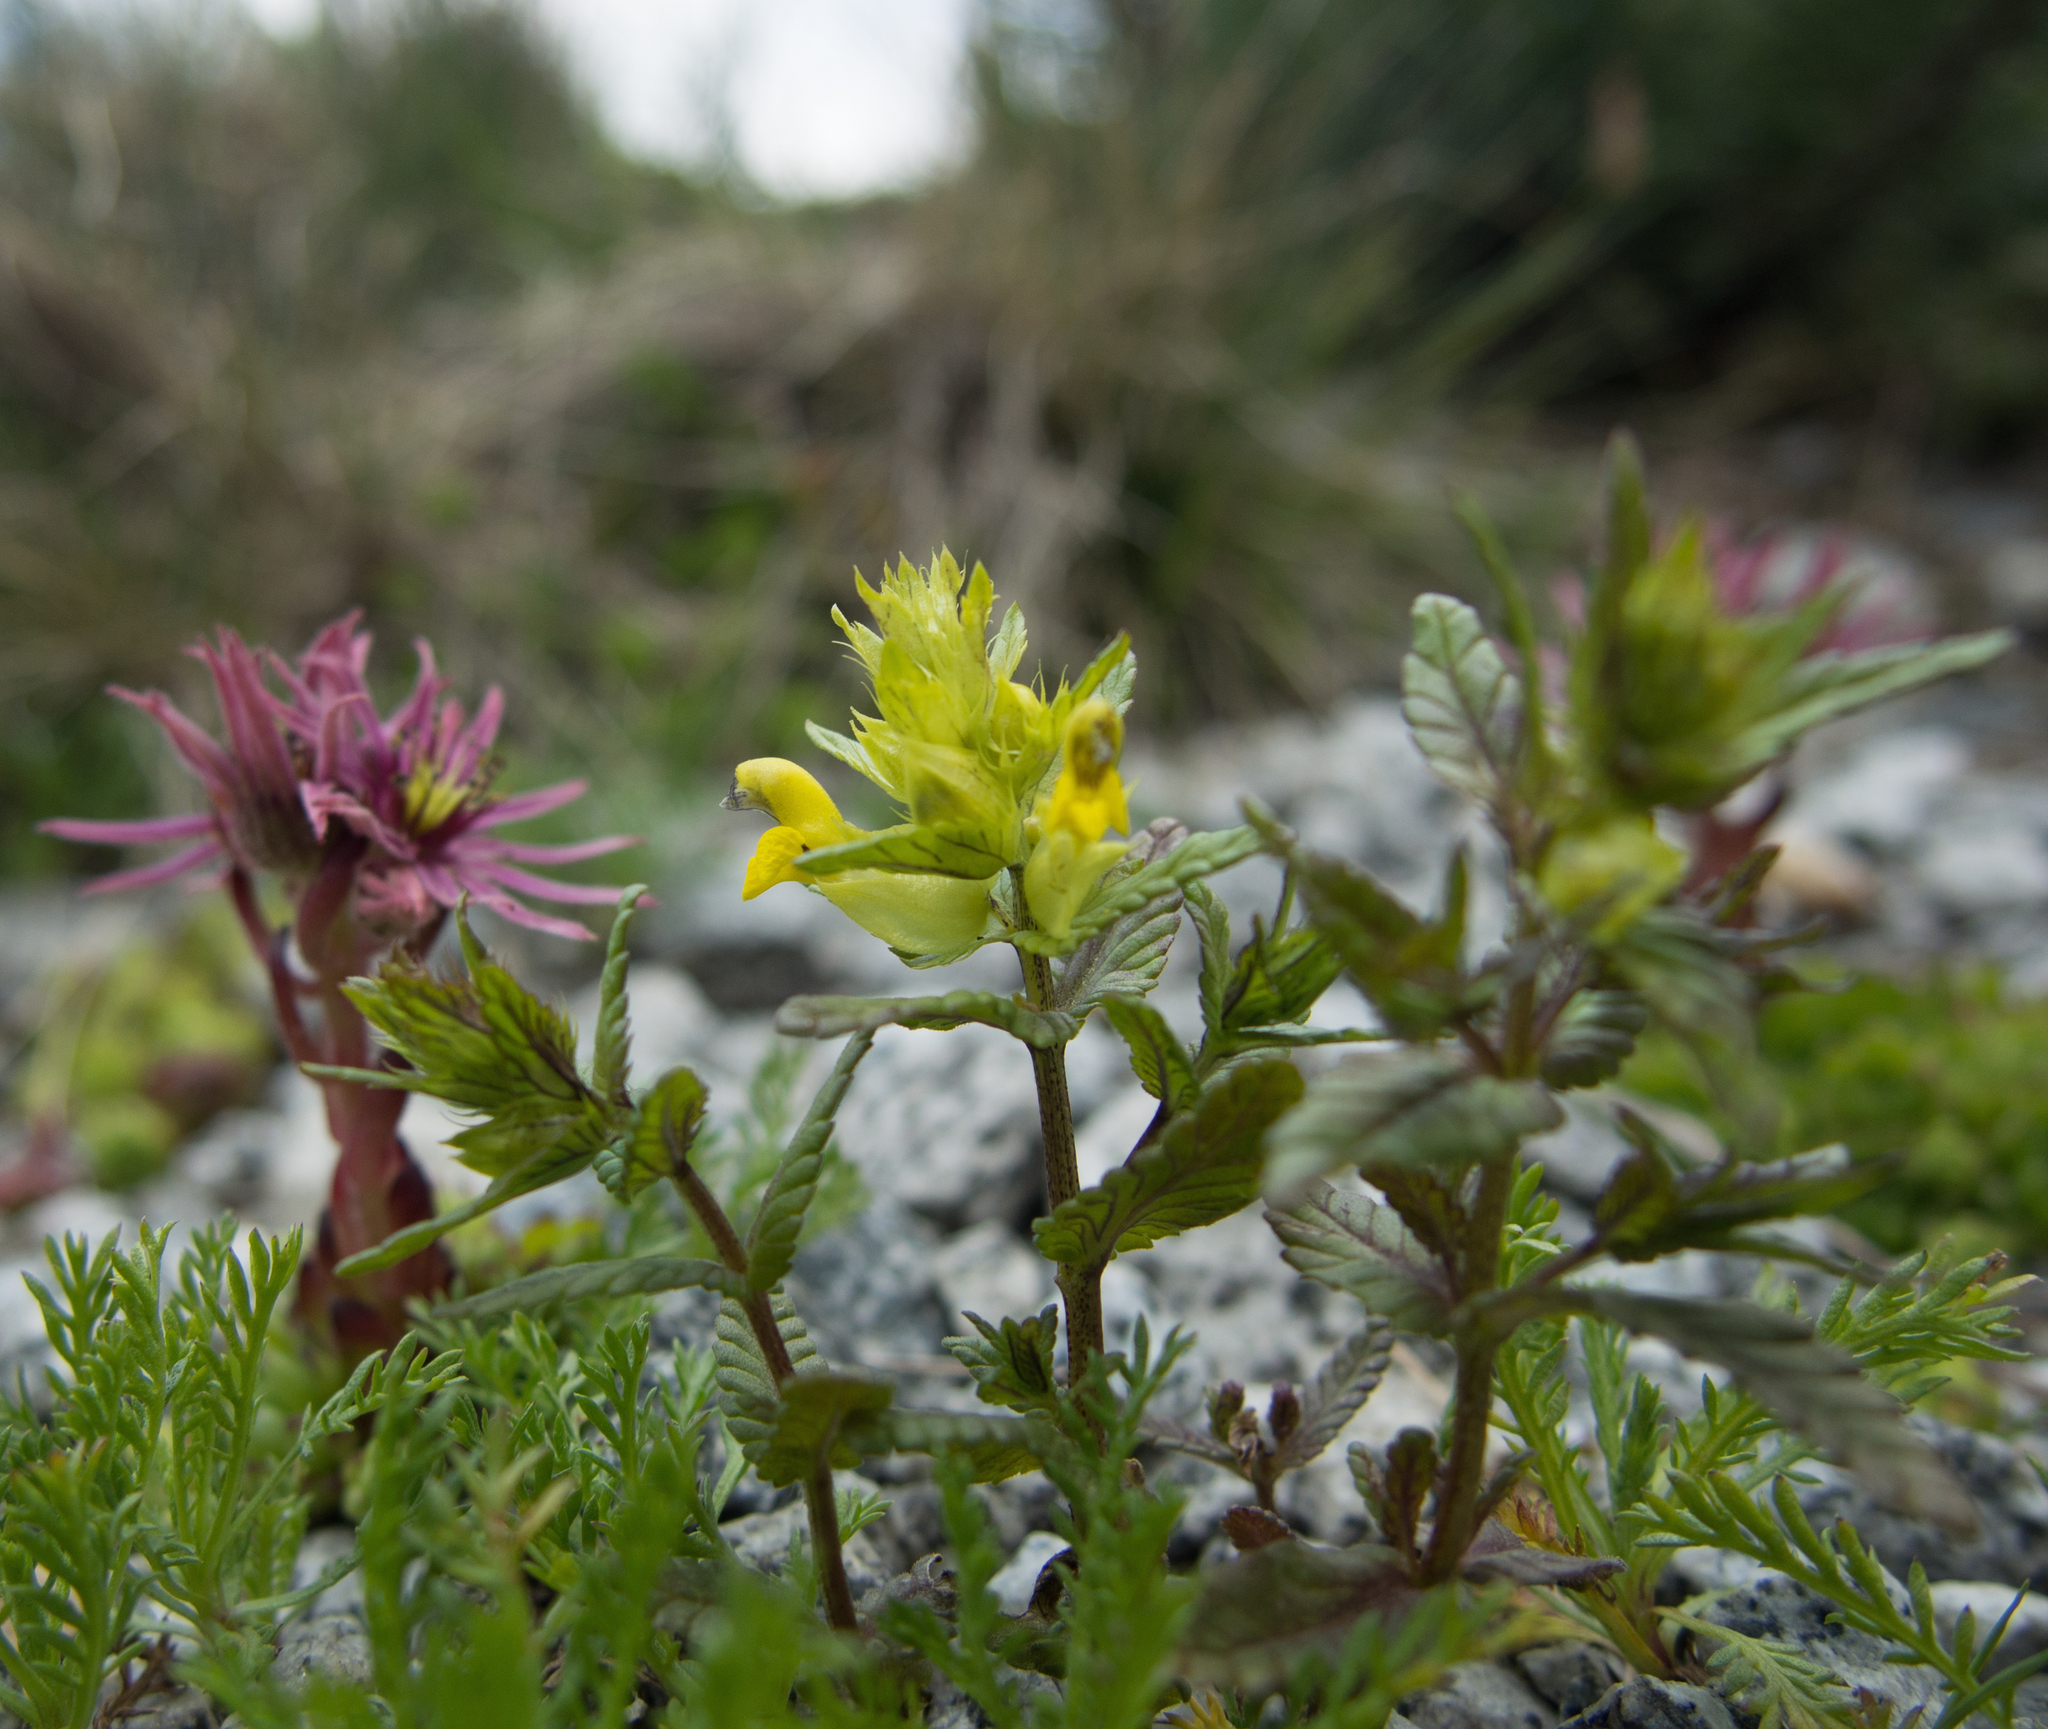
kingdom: Plantae
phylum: Tracheophyta
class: Magnoliopsida
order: Lamiales
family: Orobanchaceae
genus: Rhinanthus
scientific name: Rhinanthus glacialis
